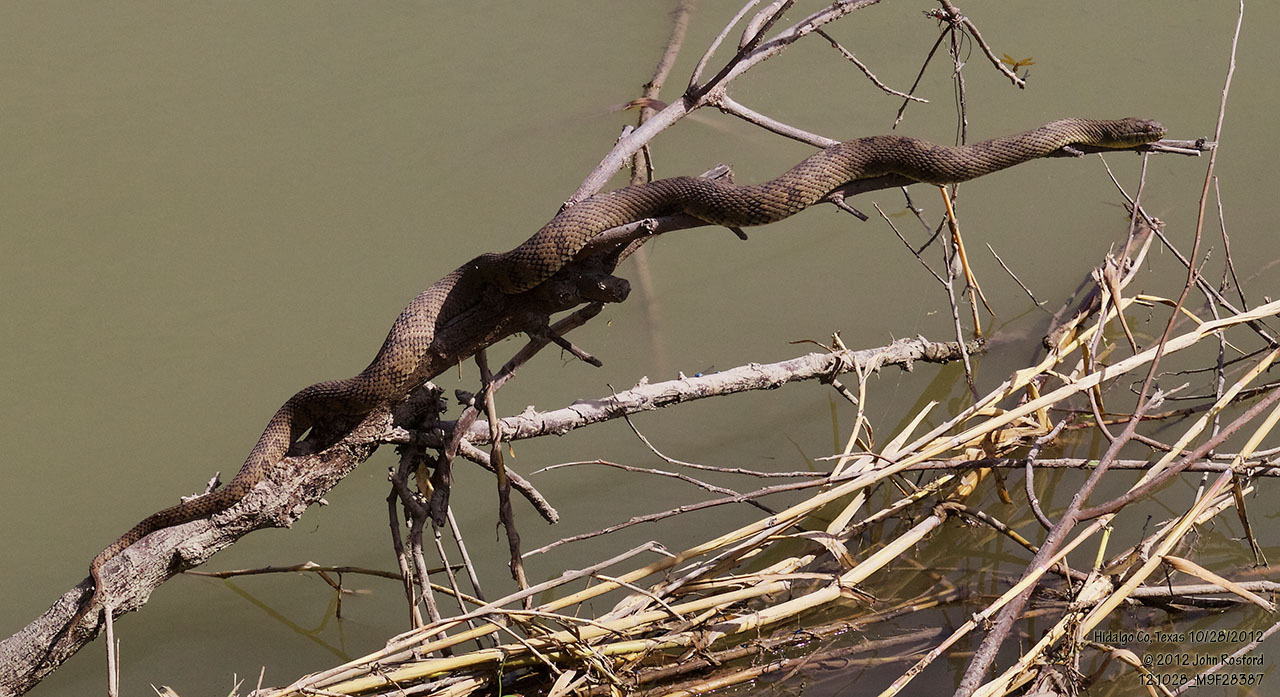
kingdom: Animalia
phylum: Chordata
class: Squamata
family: Colubridae
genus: Nerodia
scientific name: Nerodia rhombifer
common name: Diamondback water snake
